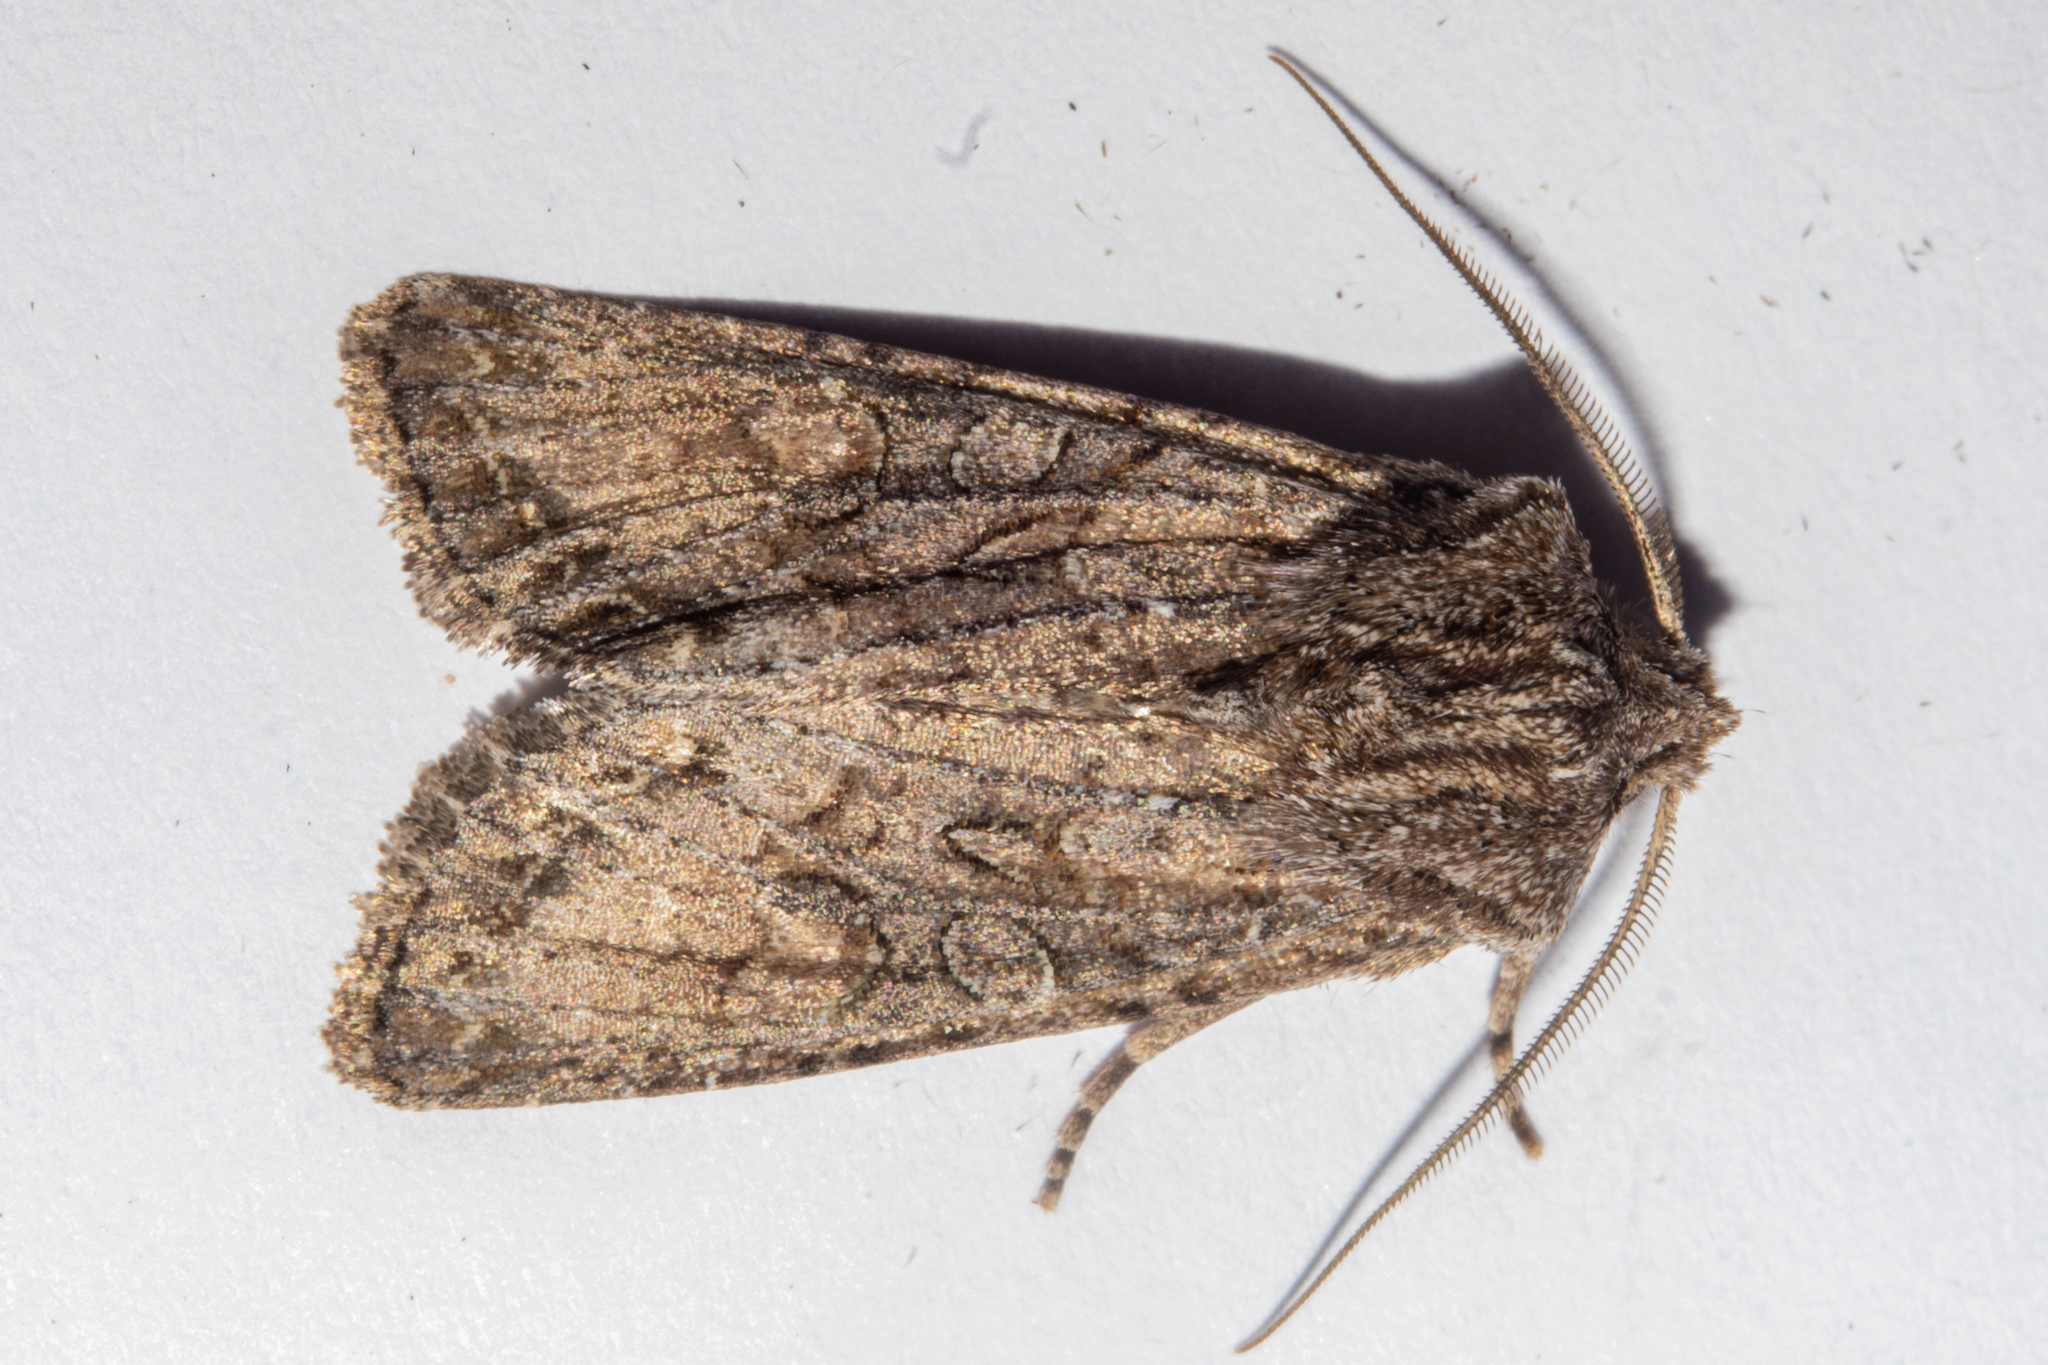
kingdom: Animalia
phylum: Arthropoda
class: Insecta
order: Lepidoptera
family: Noctuidae
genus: Ichneutica
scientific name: Ichneutica mutans
